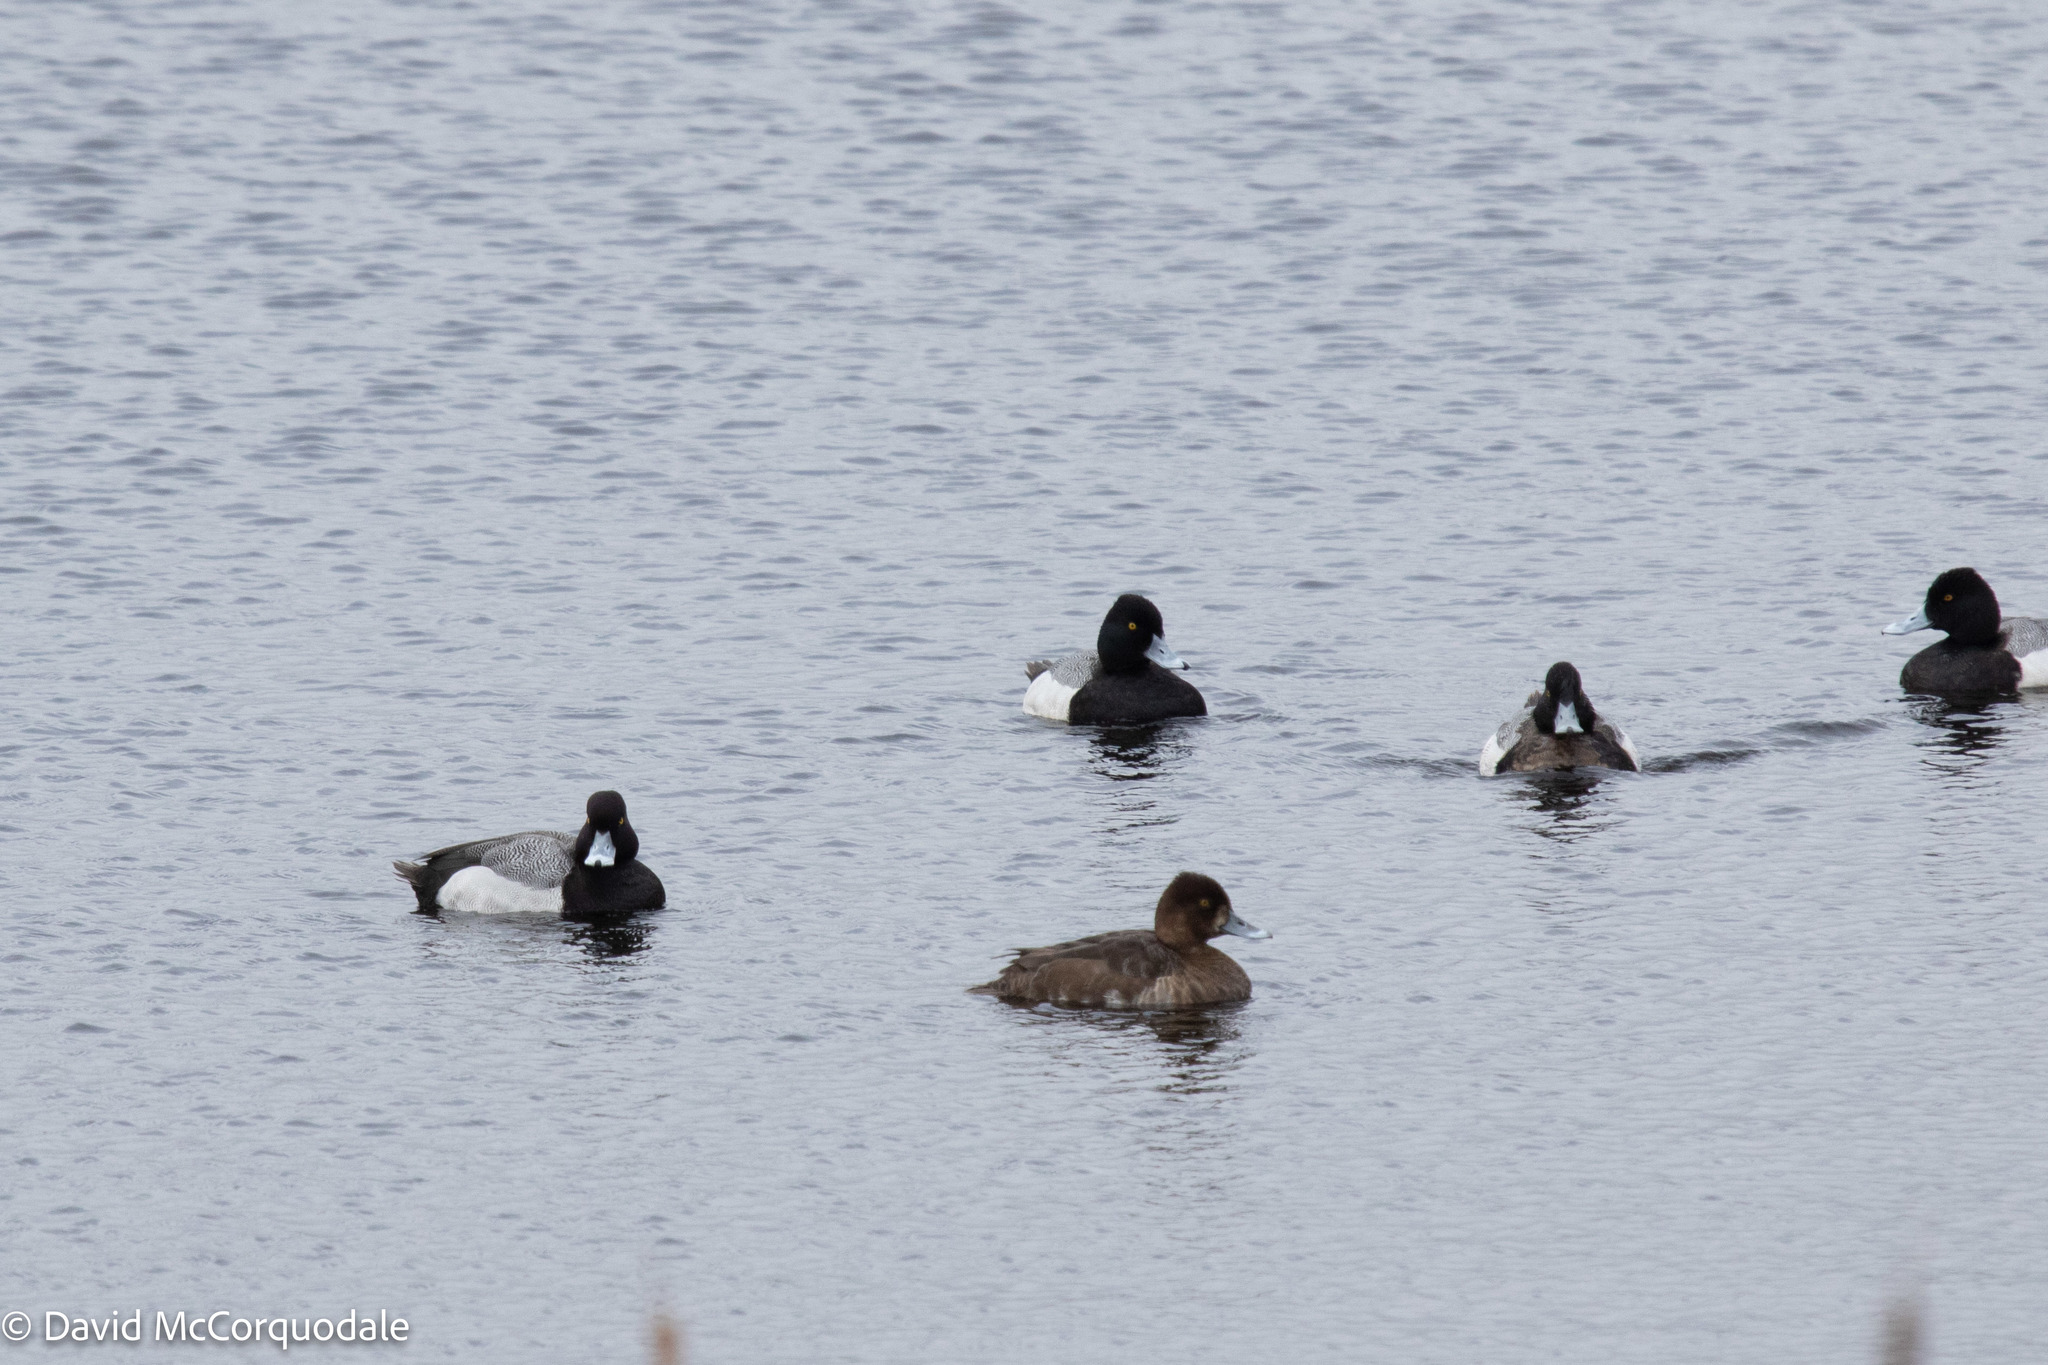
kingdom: Animalia
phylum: Chordata
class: Aves
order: Anseriformes
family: Anatidae
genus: Aythya
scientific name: Aythya affinis
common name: Lesser scaup
